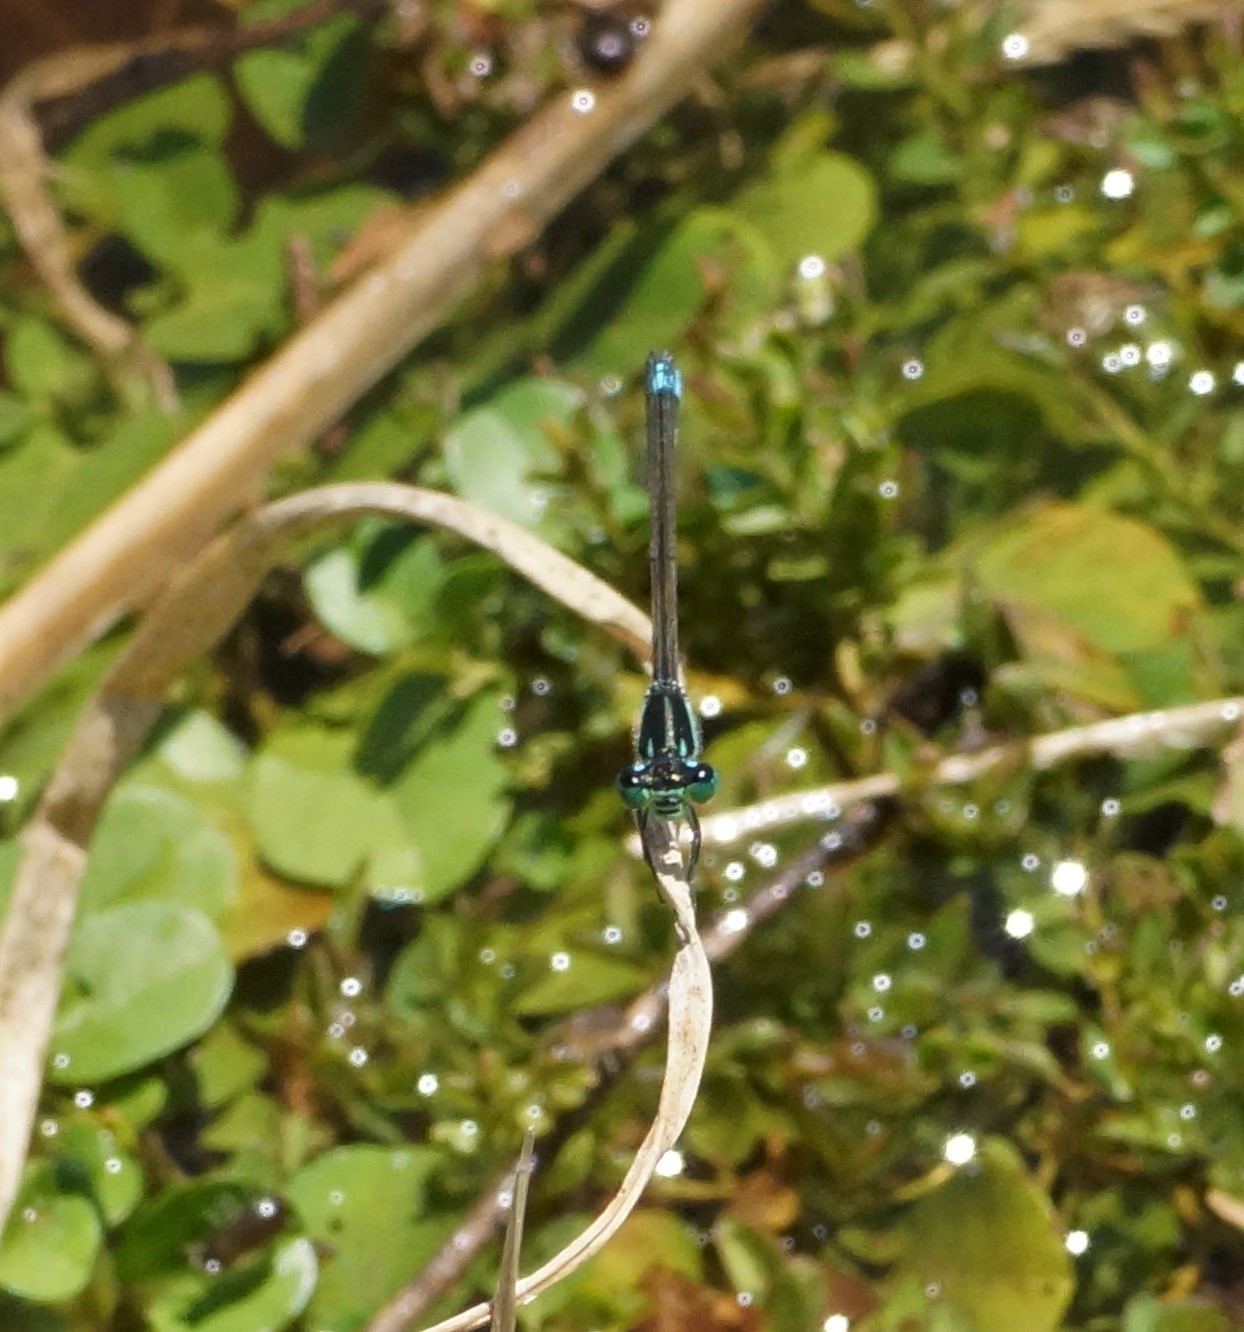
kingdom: Animalia
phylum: Arthropoda
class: Insecta
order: Odonata
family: Coenagrionidae
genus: Ischnura
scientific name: Ischnura heterosticta
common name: Common bluetail
